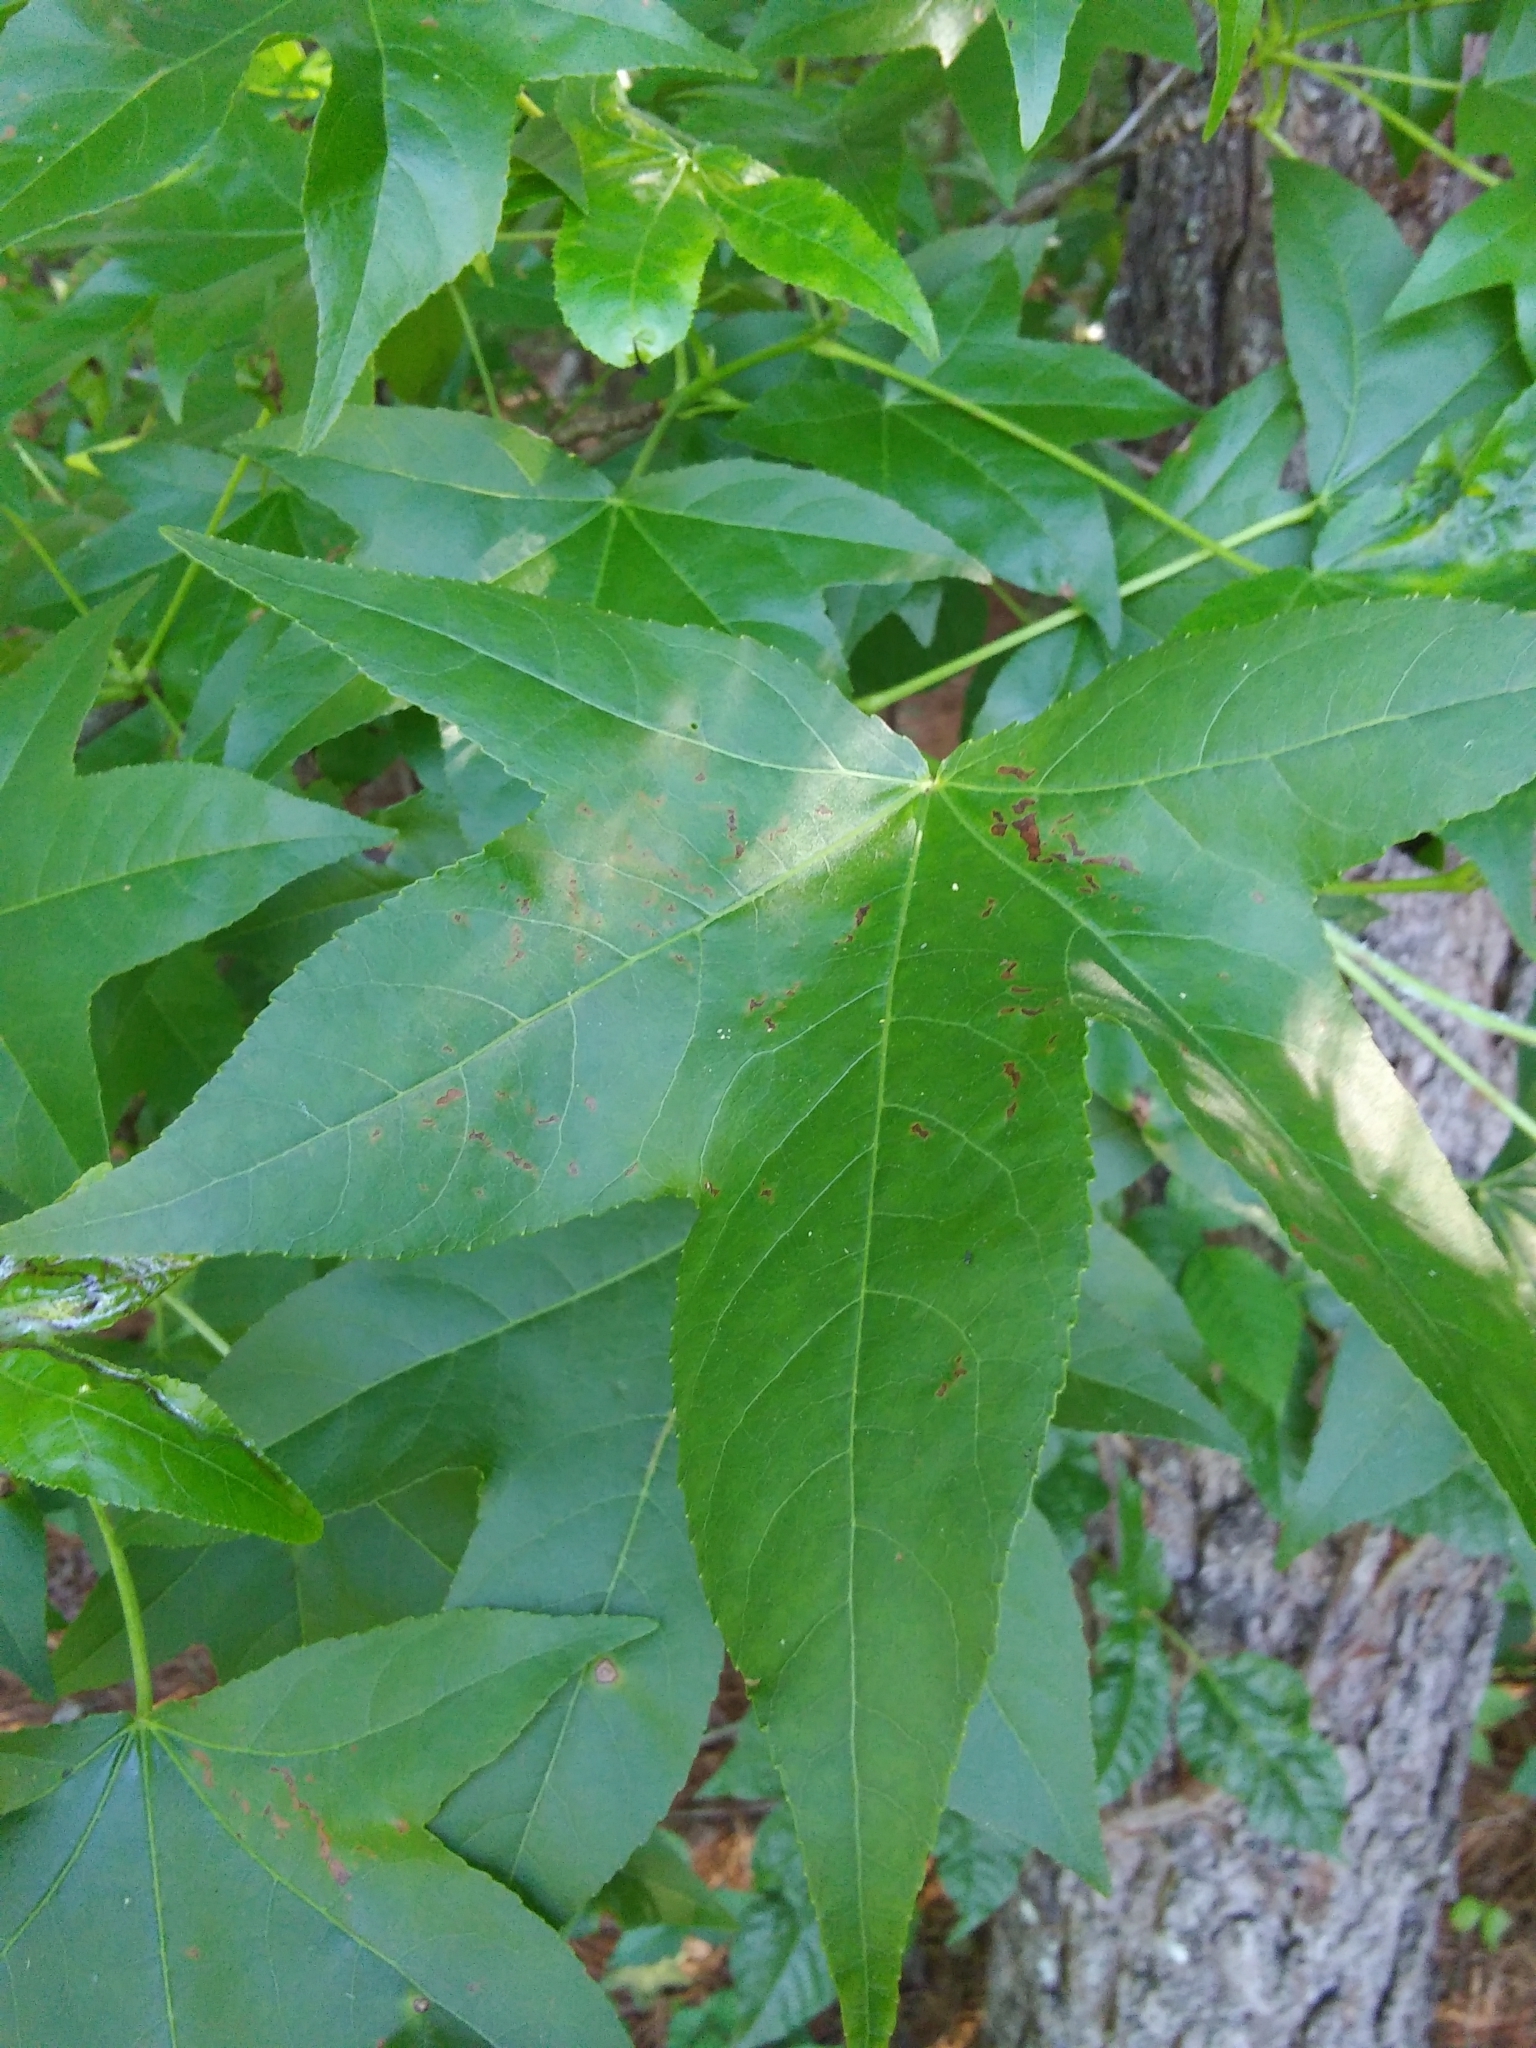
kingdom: Plantae
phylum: Tracheophyta
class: Magnoliopsida
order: Saxifragales
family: Altingiaceae
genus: Liquidambar
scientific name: Liquidambar styraciflua
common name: Sweet gum
